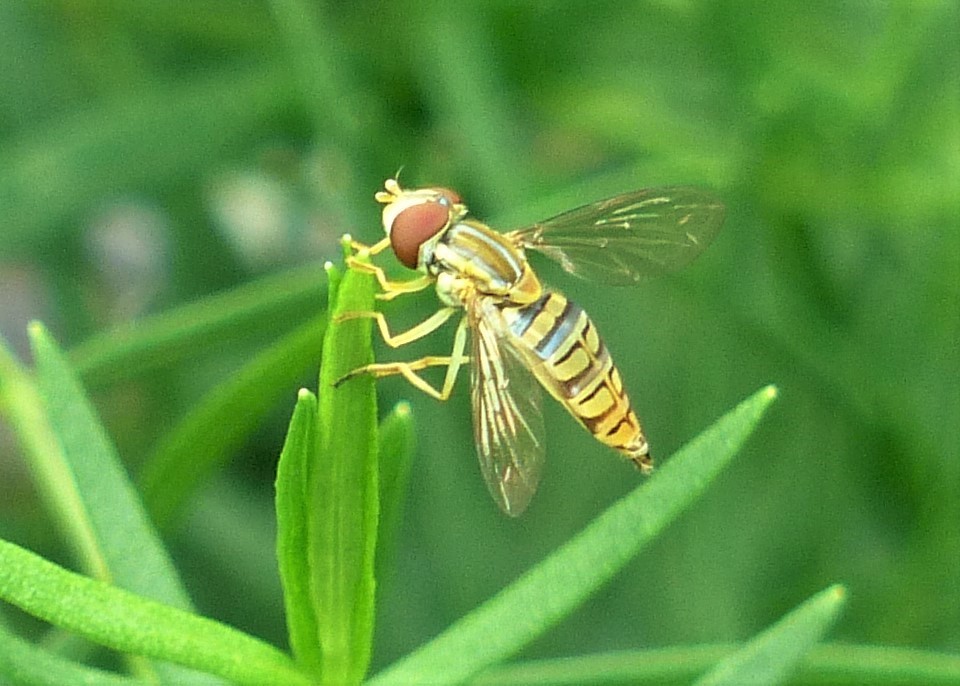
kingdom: Animalia
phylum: Arthropoda
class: Insecta
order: Diptera
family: Syrphidae
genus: Toxomerus
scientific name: Toxomerus politus
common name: Maize calligrapher
